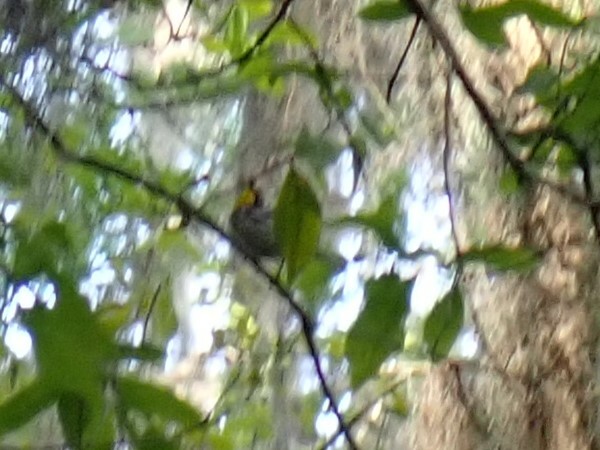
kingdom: Animalia
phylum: Chordata
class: Aves
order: Passeriformes
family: Parulidae
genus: Setophaga
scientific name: Setophaga dominica
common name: Yellow-throated warbler
